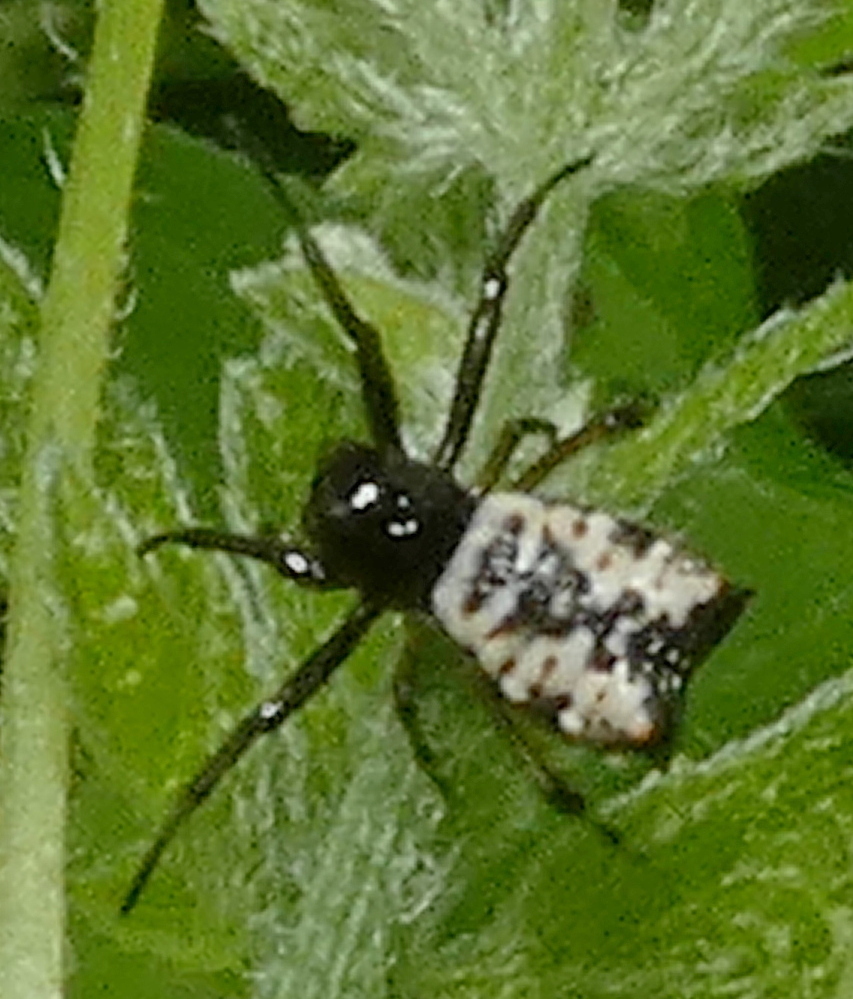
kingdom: Animalia
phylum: Arthropoda
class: Arachnida
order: Araneae
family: Araneidae
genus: Micrathena
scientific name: Micrathena patruelis
